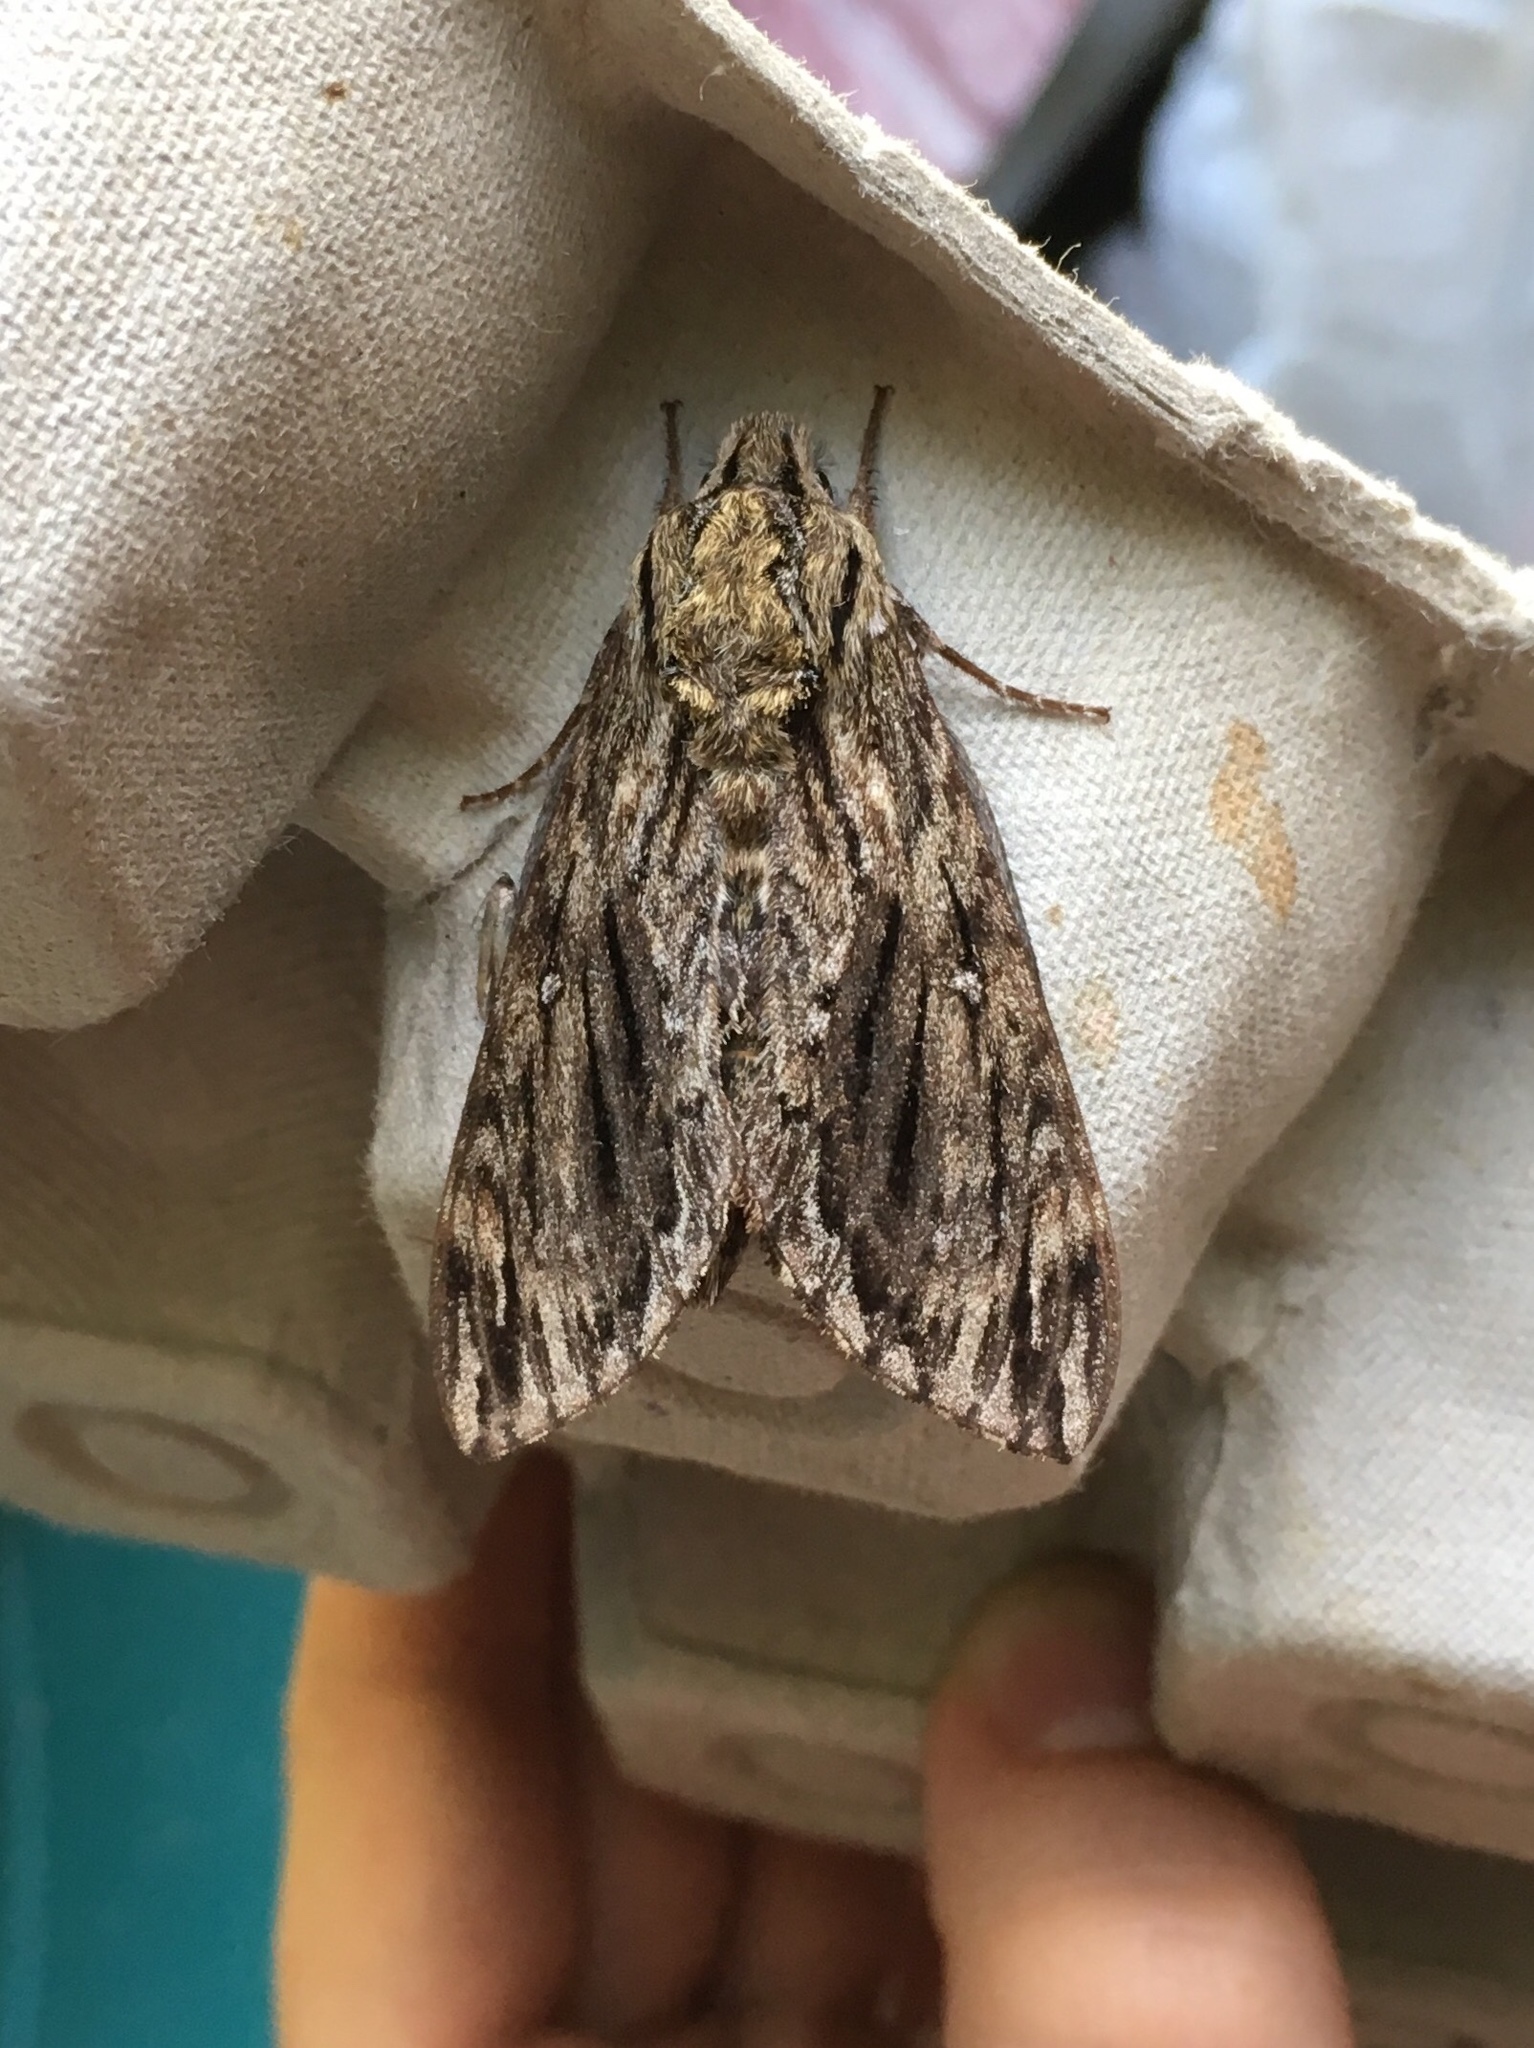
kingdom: Animalia
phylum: Arthropoda
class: Insecta
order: Lepidoptera
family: Sphingidae
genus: Lintneria
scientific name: Lintneria eremitus
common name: Hermit sphinx
